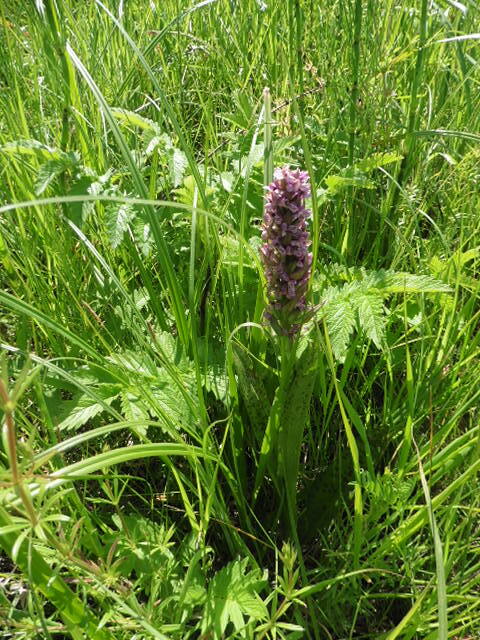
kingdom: Plantae
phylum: Tracheophyta
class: Liliopsida
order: Asparagales
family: Orchidaceae
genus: Dactylorhiza
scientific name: Dactylorhiza incarnata
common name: Early marsh-orchid
